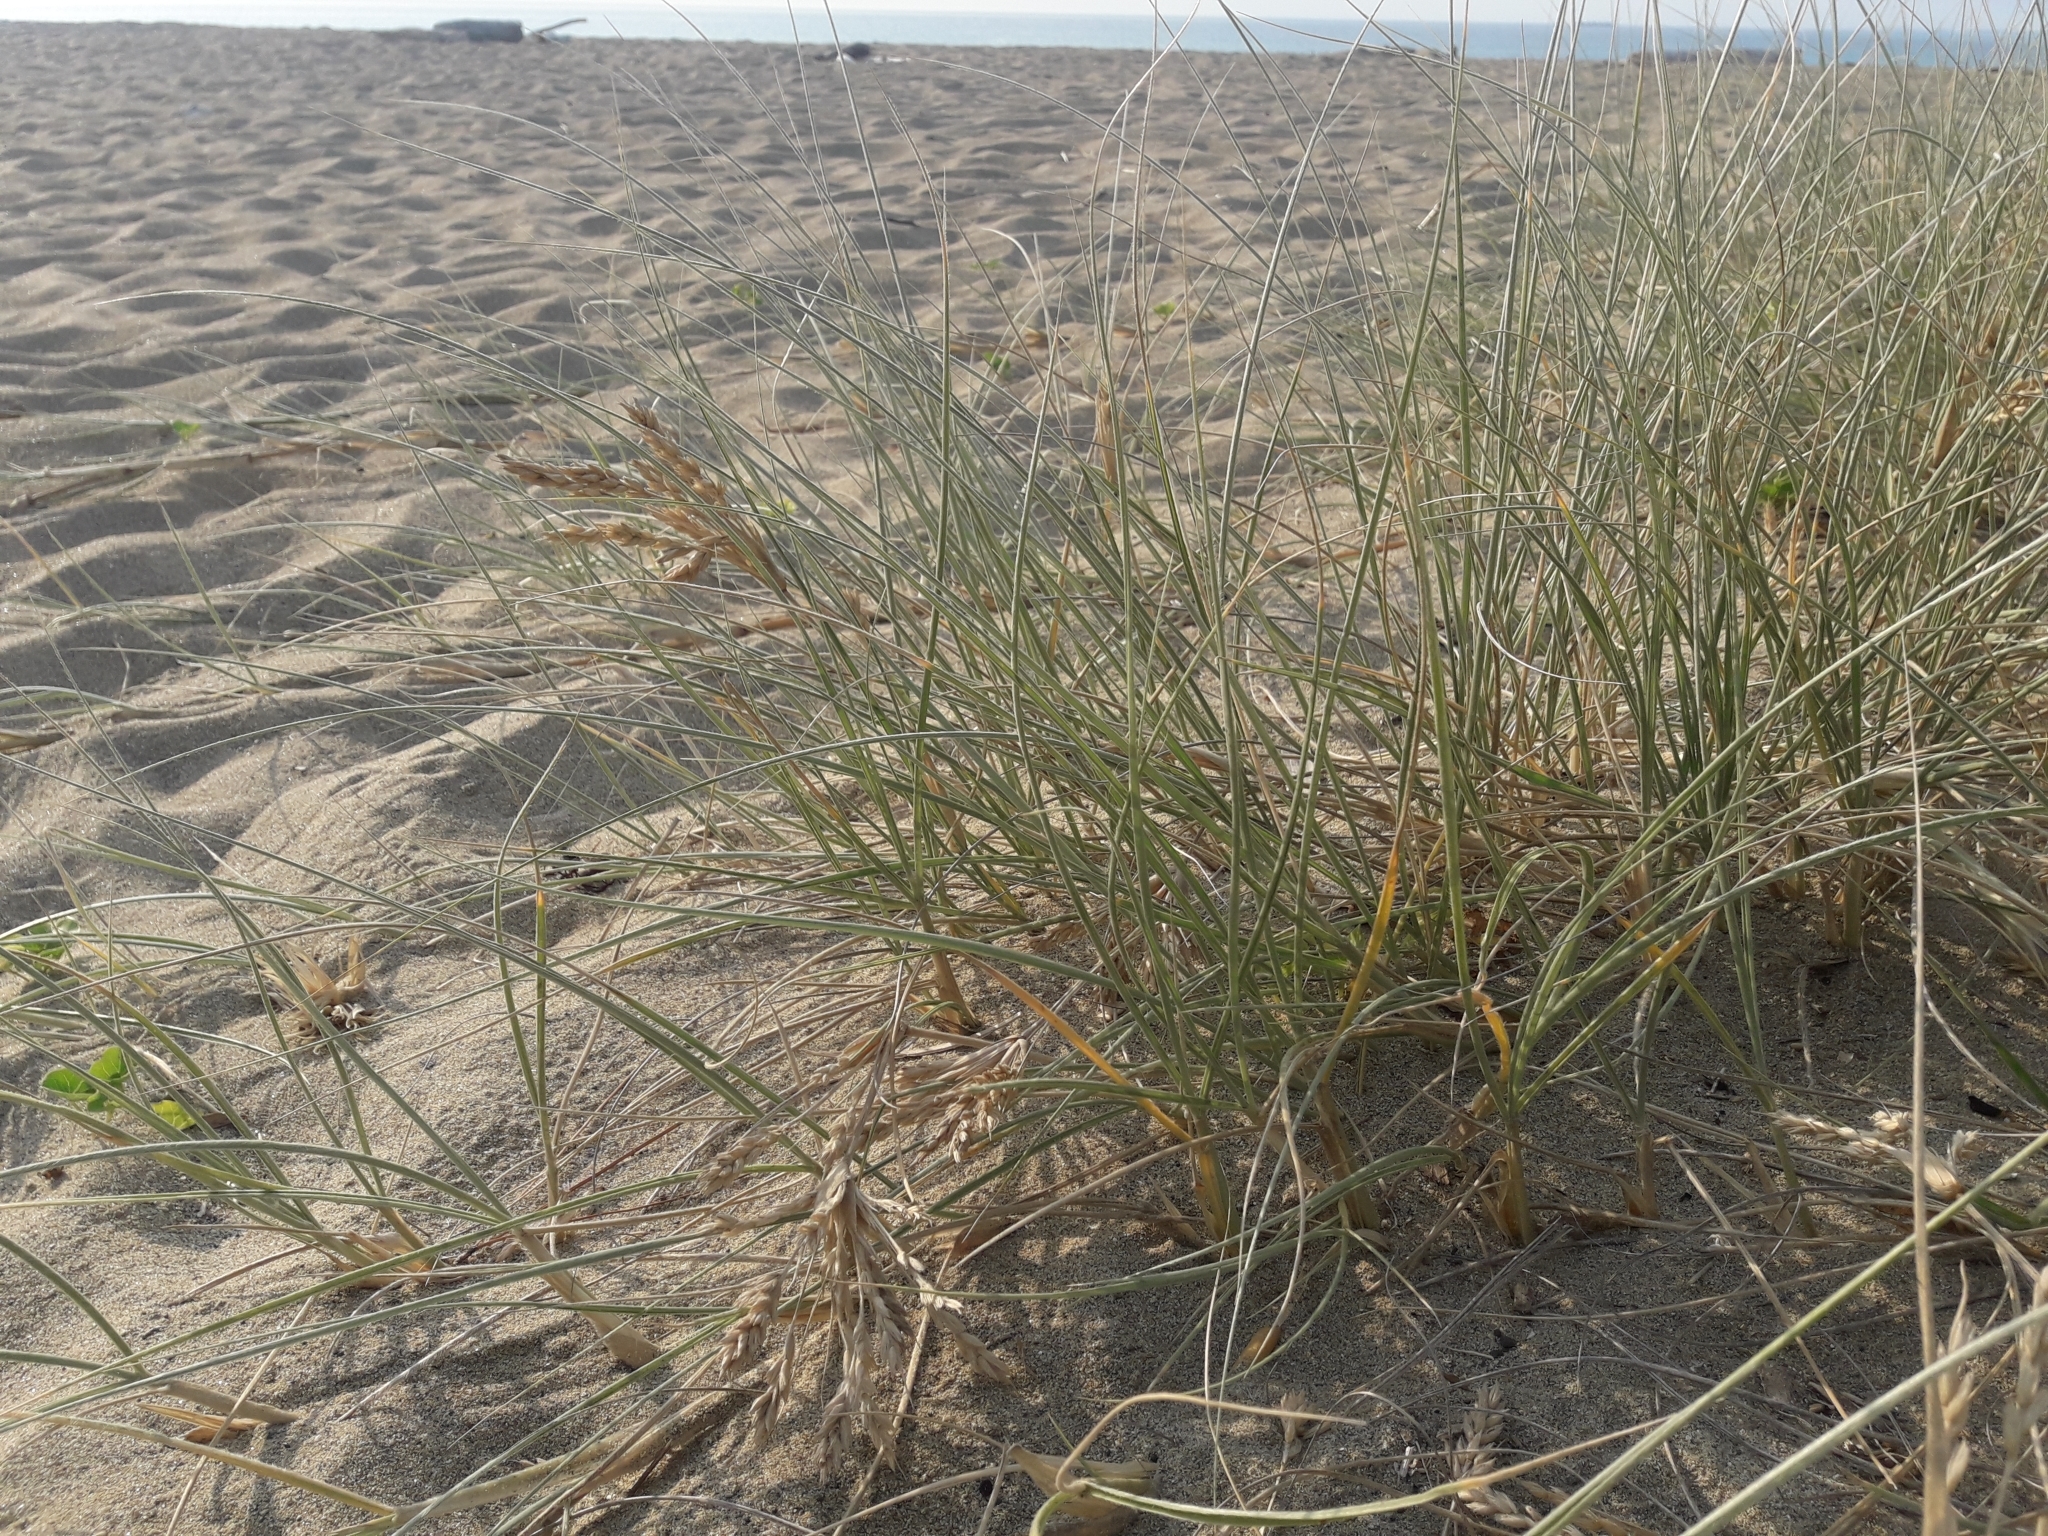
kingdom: Plantae
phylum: Tracheophyta
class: Liliopsida
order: Poales
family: Poaceae
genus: Spinifex
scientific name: Spinifex sericeus
